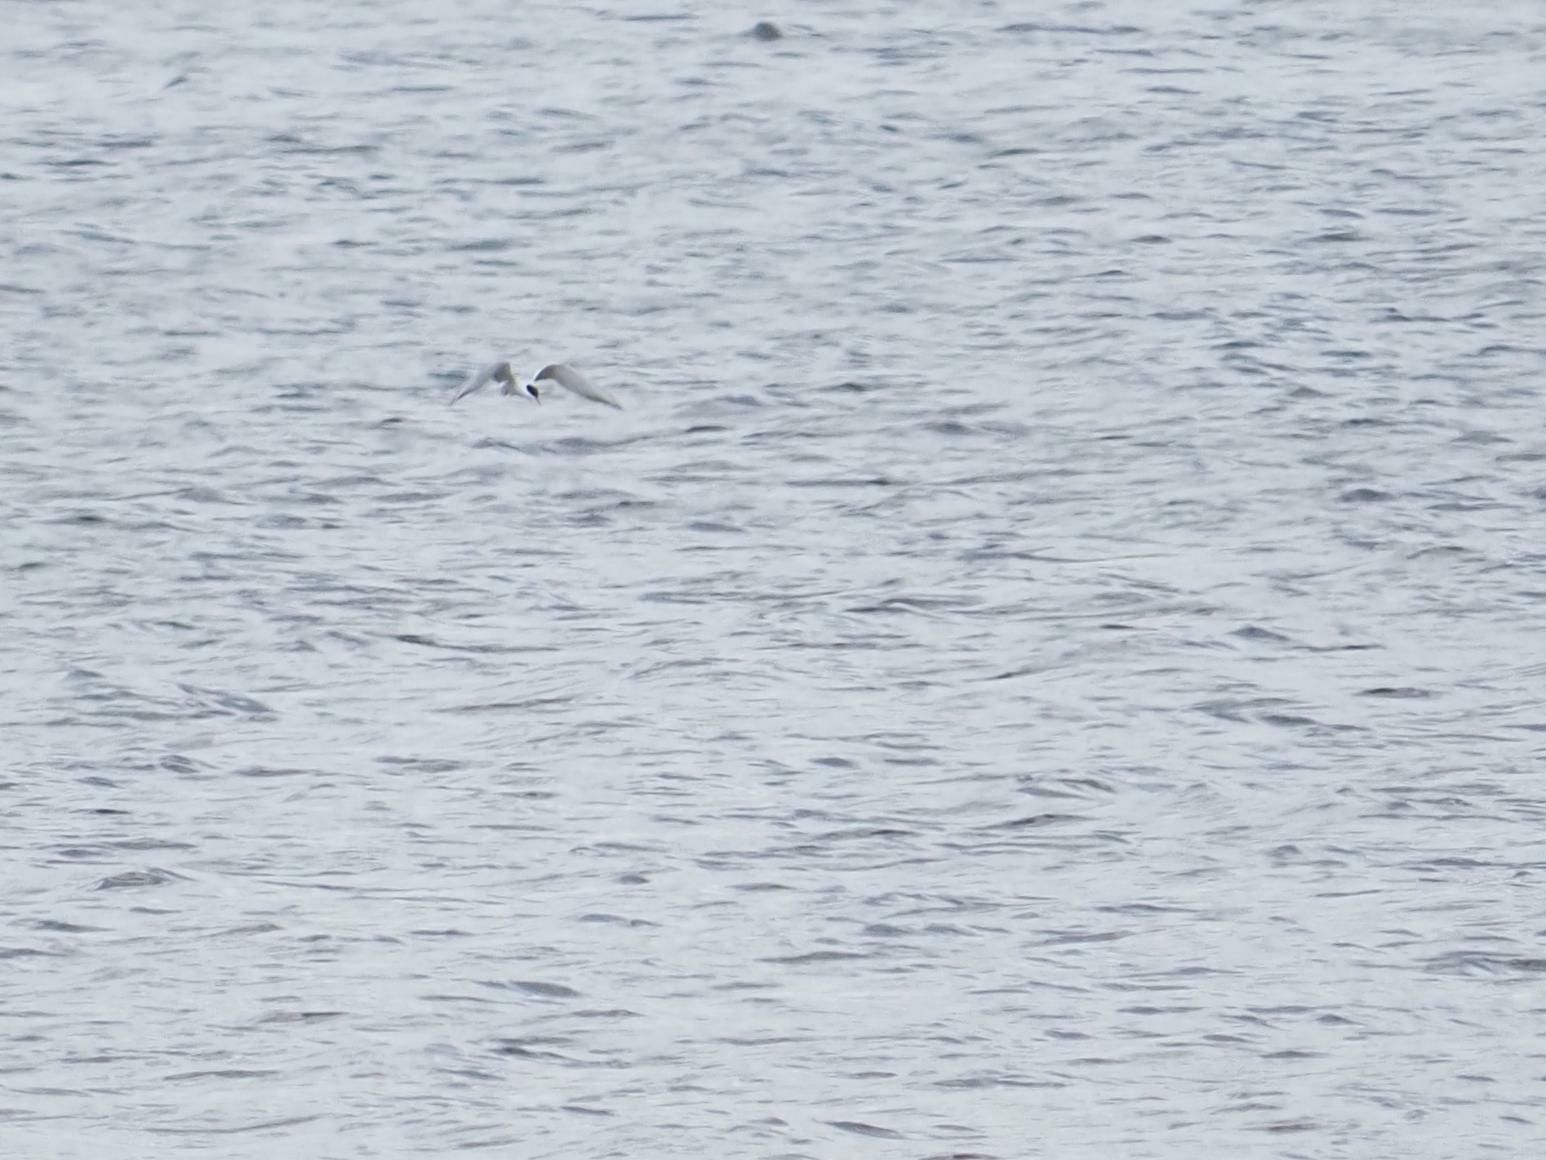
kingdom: Animalia
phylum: Chordata
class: Aves
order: Charadriiformes
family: Laridae
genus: Sterna
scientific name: Sterna hirundo
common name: Common tern
